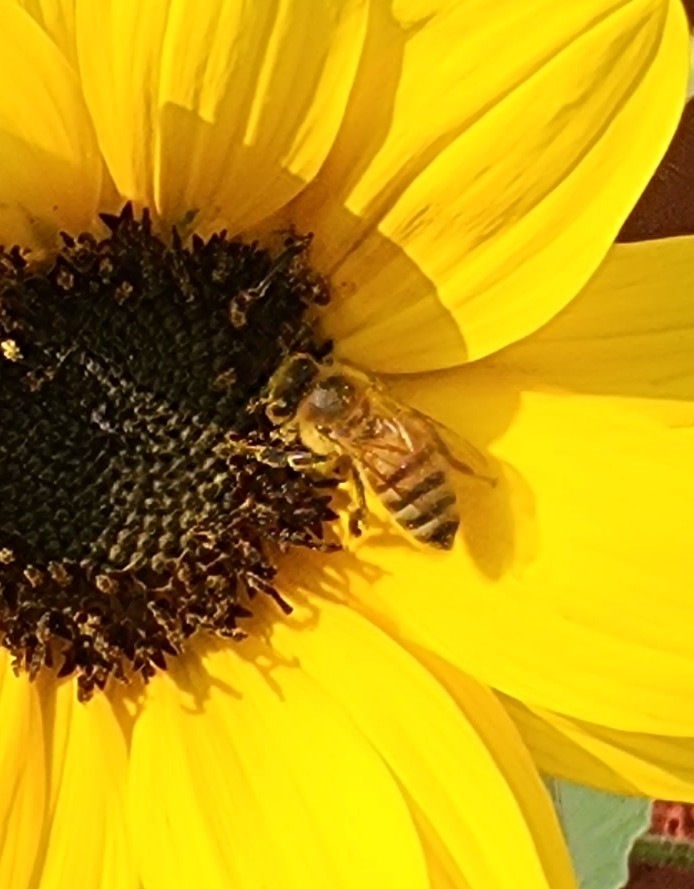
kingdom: Animalia
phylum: Arthropoda
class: Insecta
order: Hymenoptera
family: Apidae
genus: Apis
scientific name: Apis mellifera
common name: Honey bee
